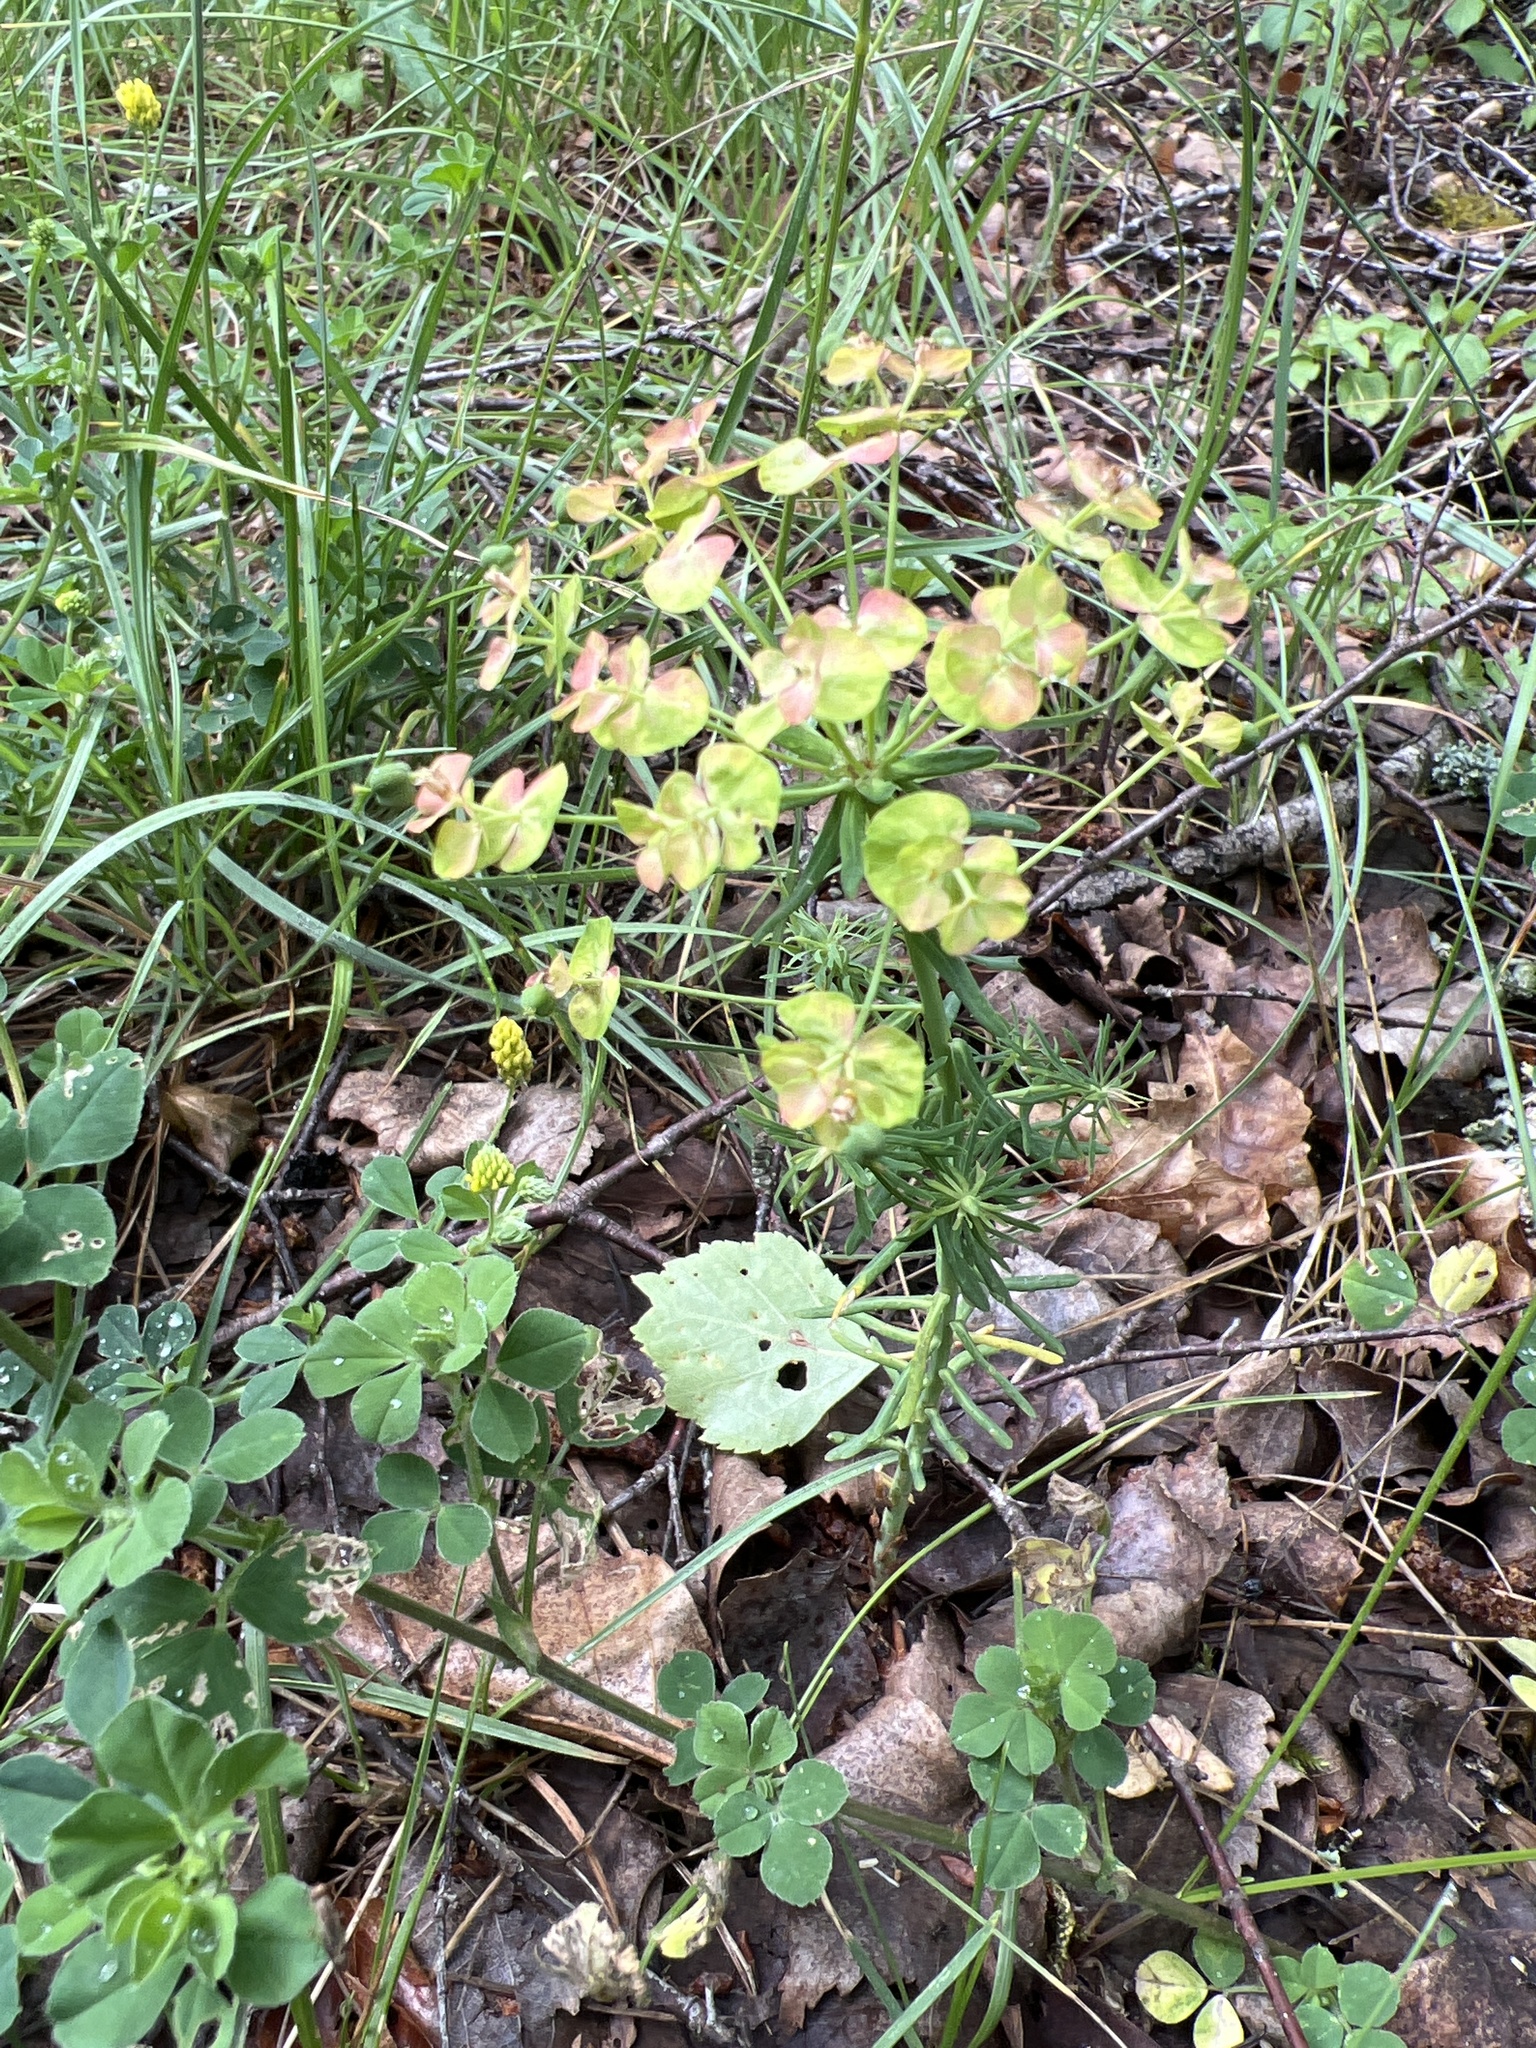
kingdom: Plantae
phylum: Tracheophyta
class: Magnoliopsida
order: Malpighiales
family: Euphorbiaceae
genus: Euphorbia
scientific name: Euphorbia cyparissias
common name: Cypress spurge
